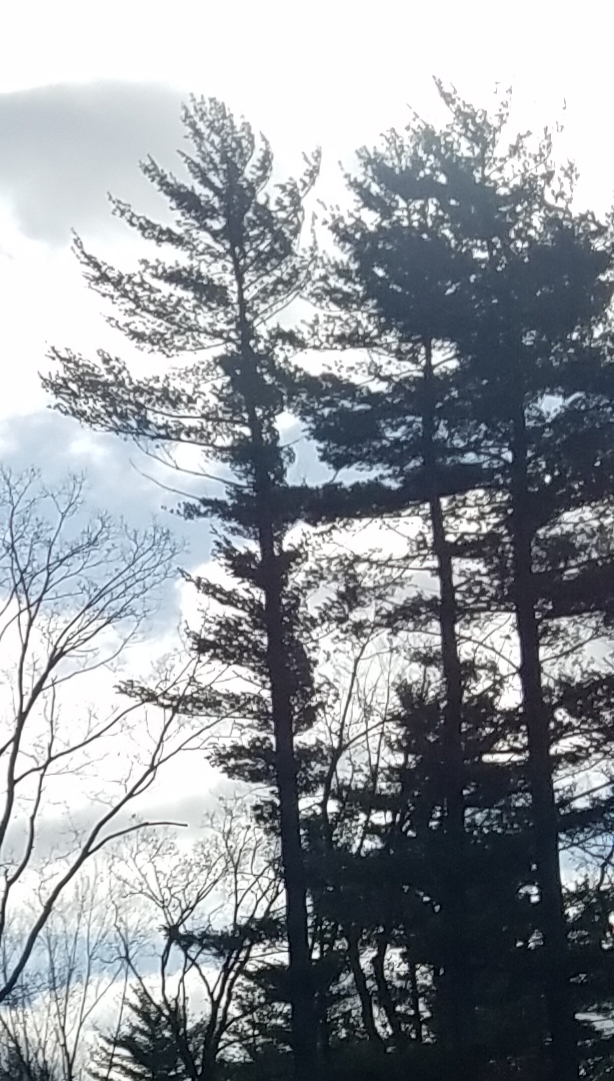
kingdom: Plantae
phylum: Tracheophyta
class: Pinopsida
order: Pinales
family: Pinaceae
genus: Pinus
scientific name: Pinus strobus
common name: Weymouth pine
